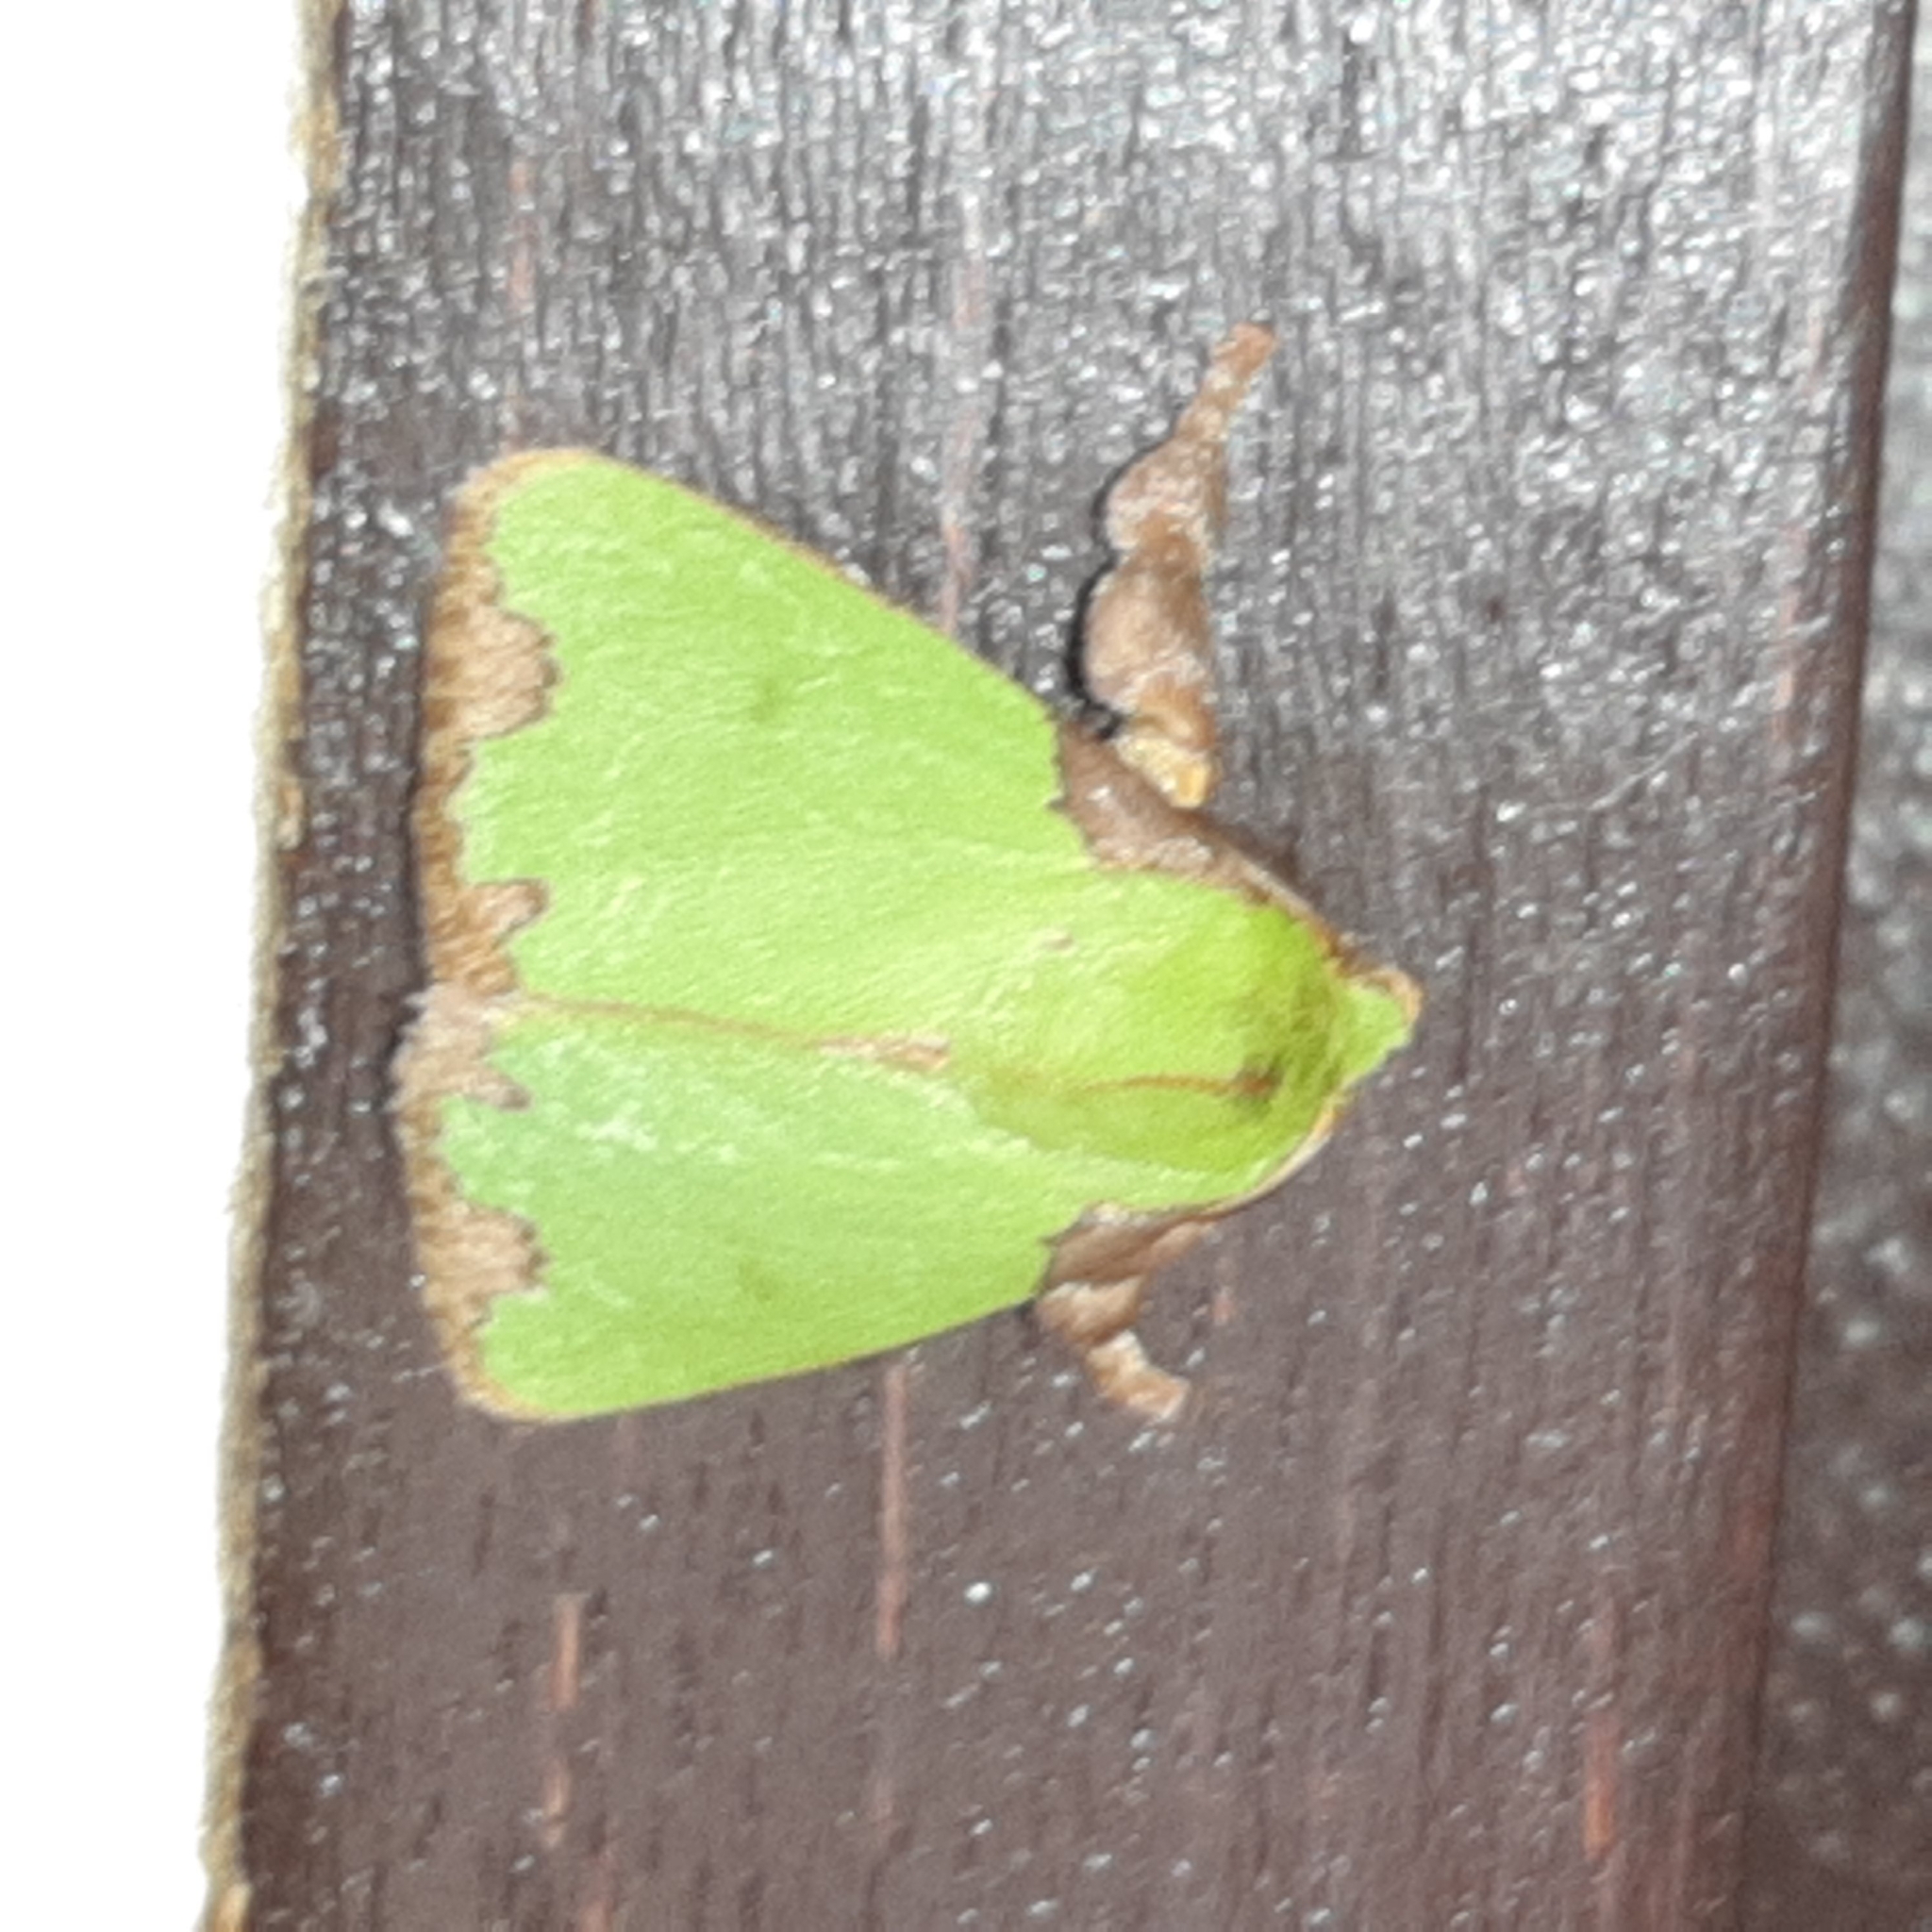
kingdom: Animalia
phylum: Arthropoda
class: Insecta
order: Lepidoptera
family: Limacodidae
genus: Parasa
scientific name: Parasa imitata
